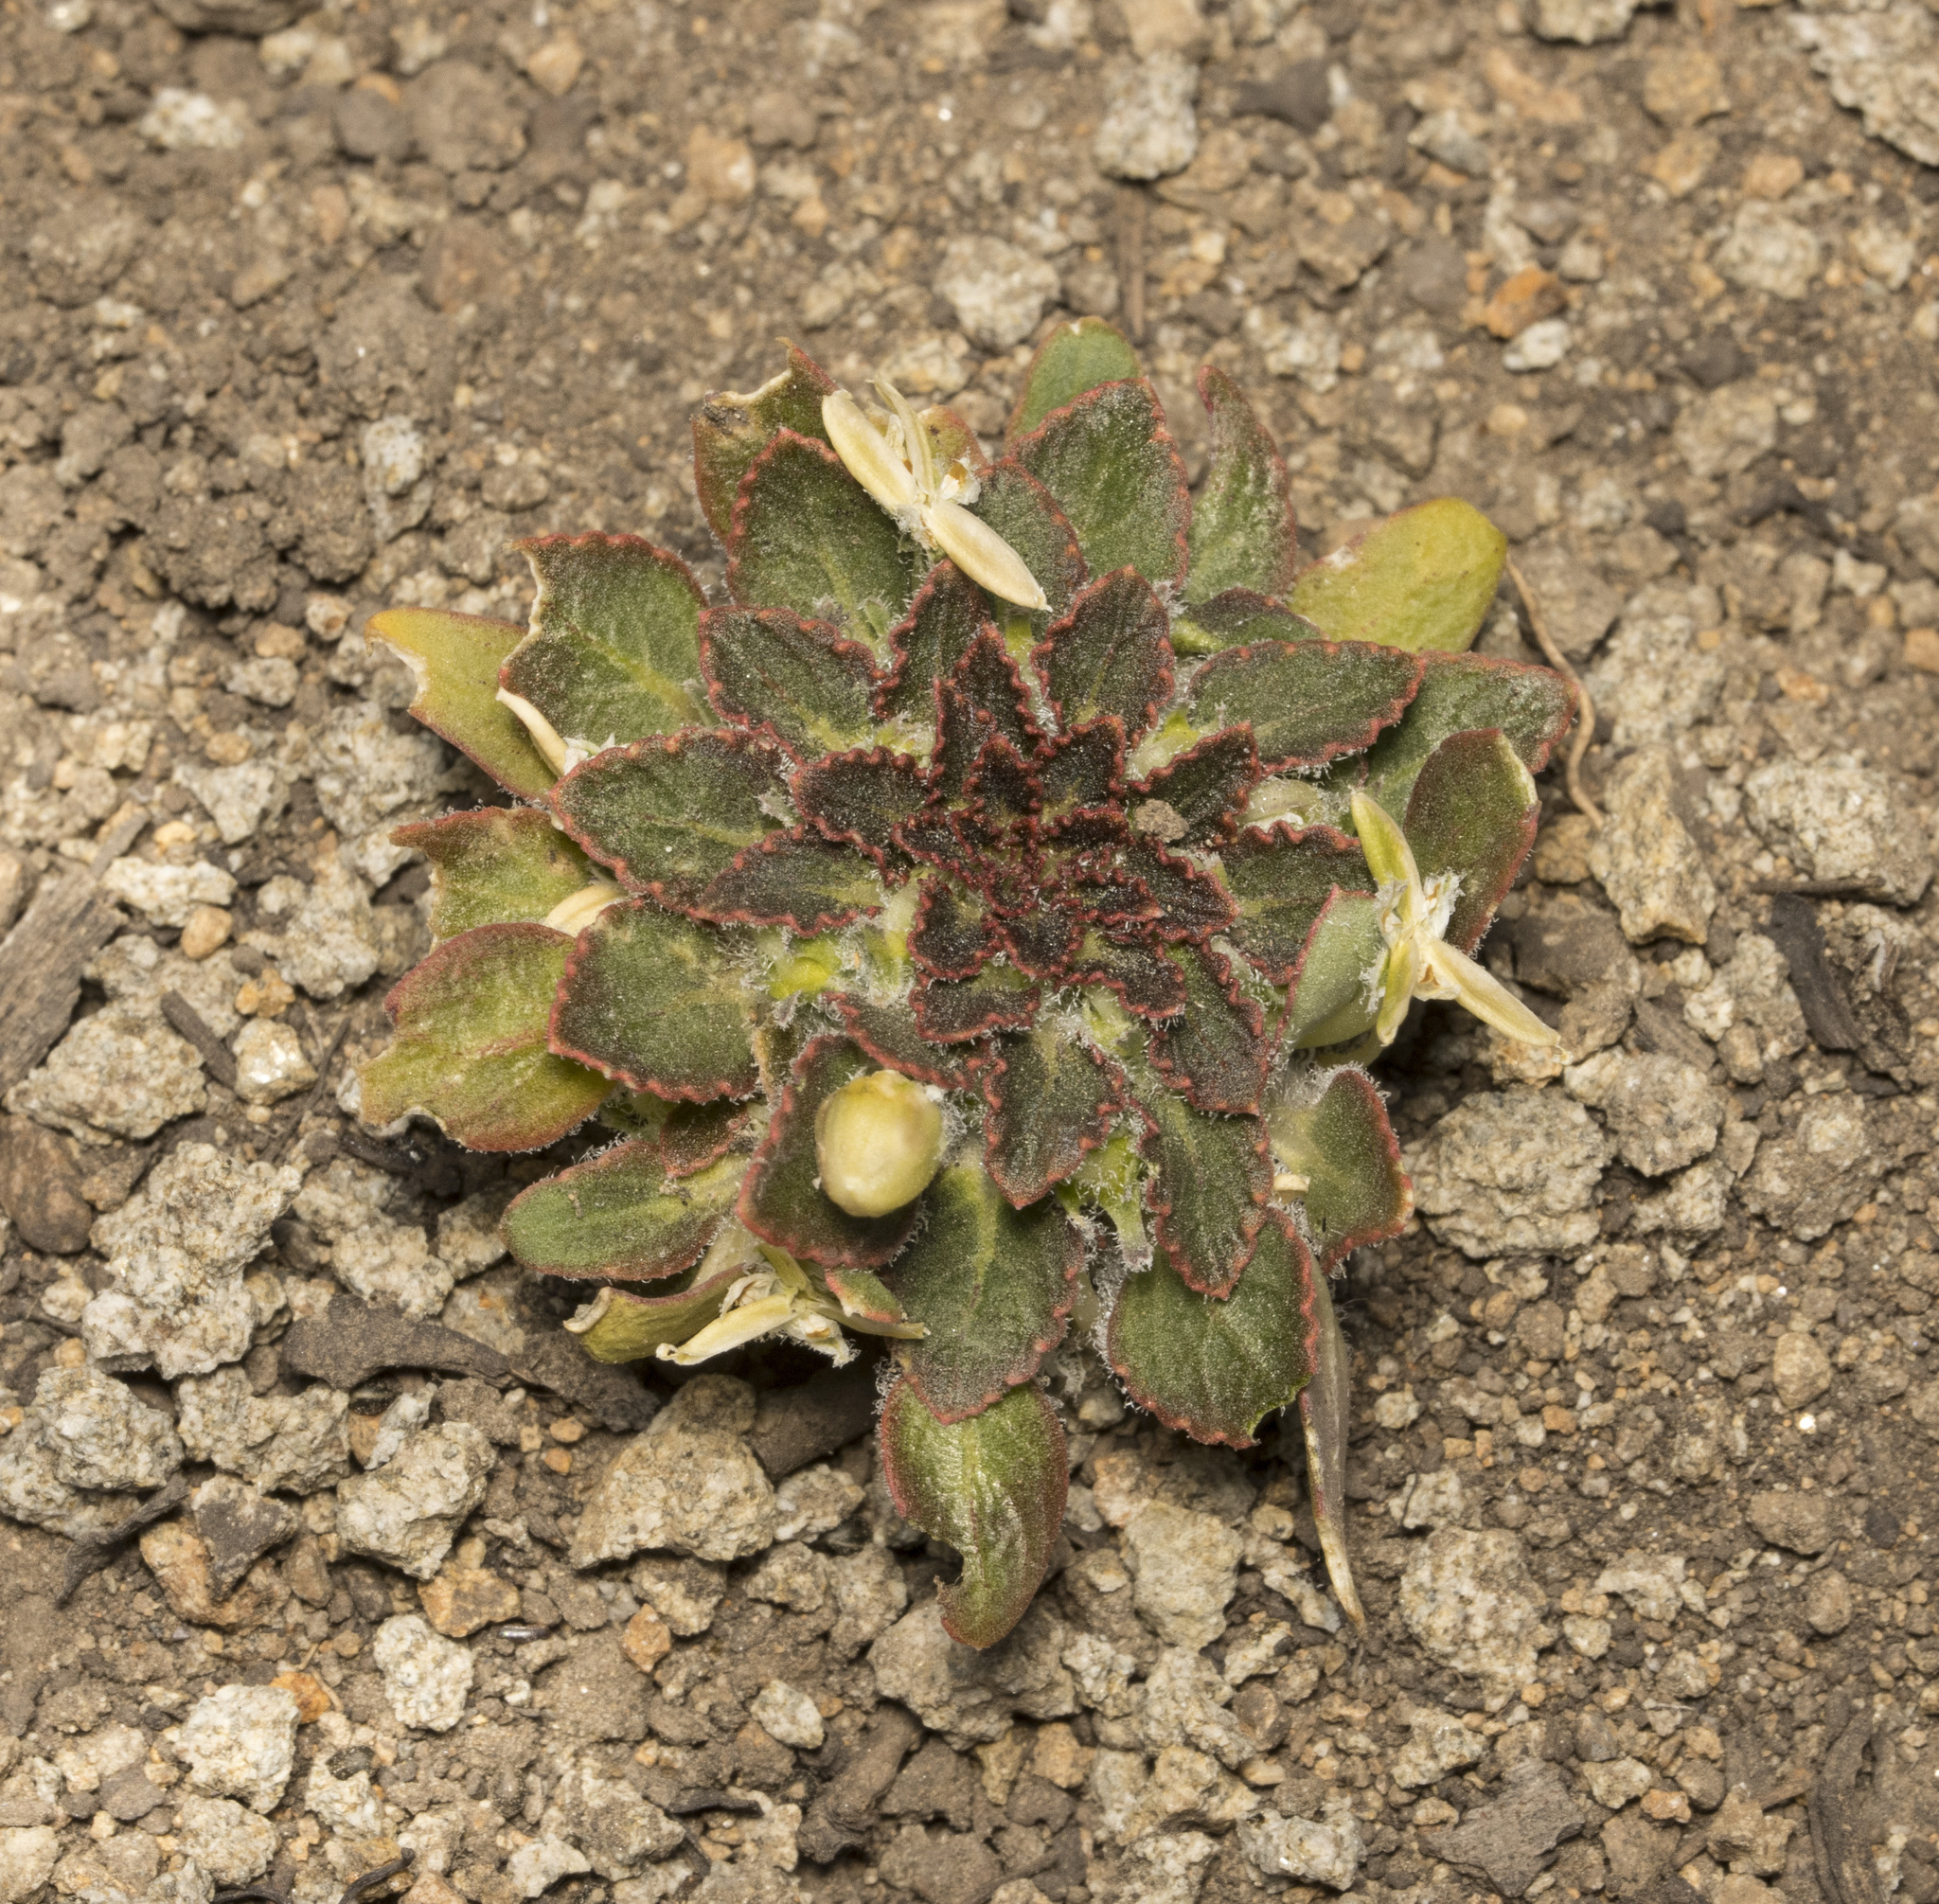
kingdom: Plantae
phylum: Tracheophyta
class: Magnoliopsida
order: Malpighiales
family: Violaceae
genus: Viola
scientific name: Viola subandina
